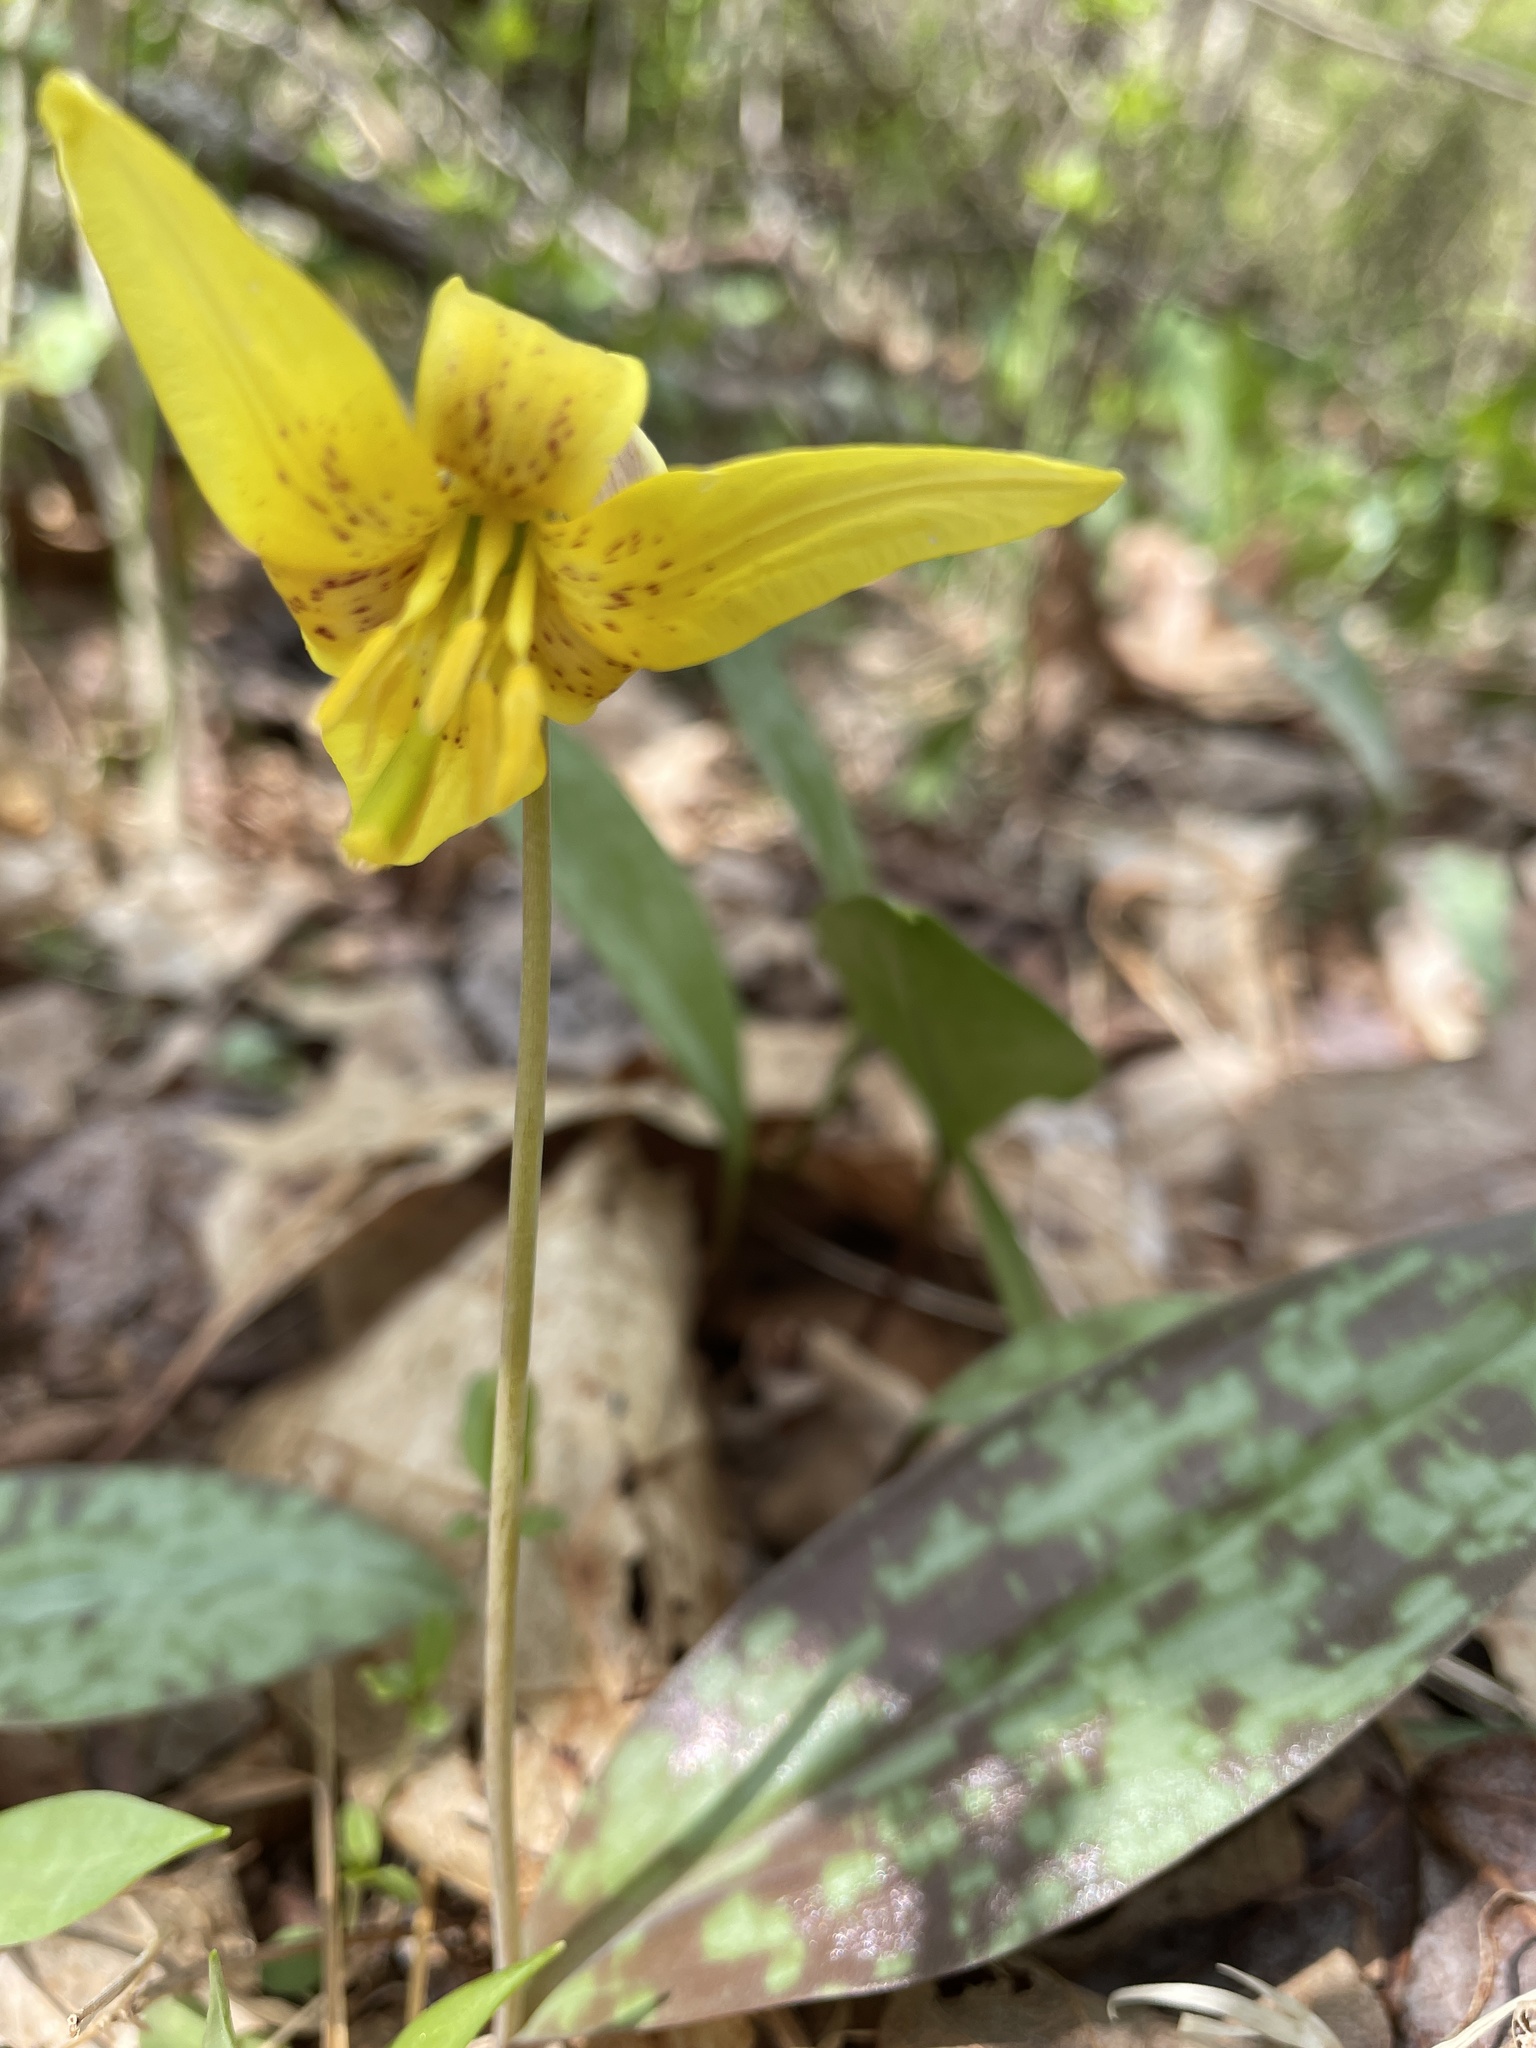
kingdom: Plantae
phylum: Tracheophyta
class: Liliopsida
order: Liliales
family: Liliaceae
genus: Erythronium
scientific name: Erythronium americanum
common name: Yellow adder's-tongue
